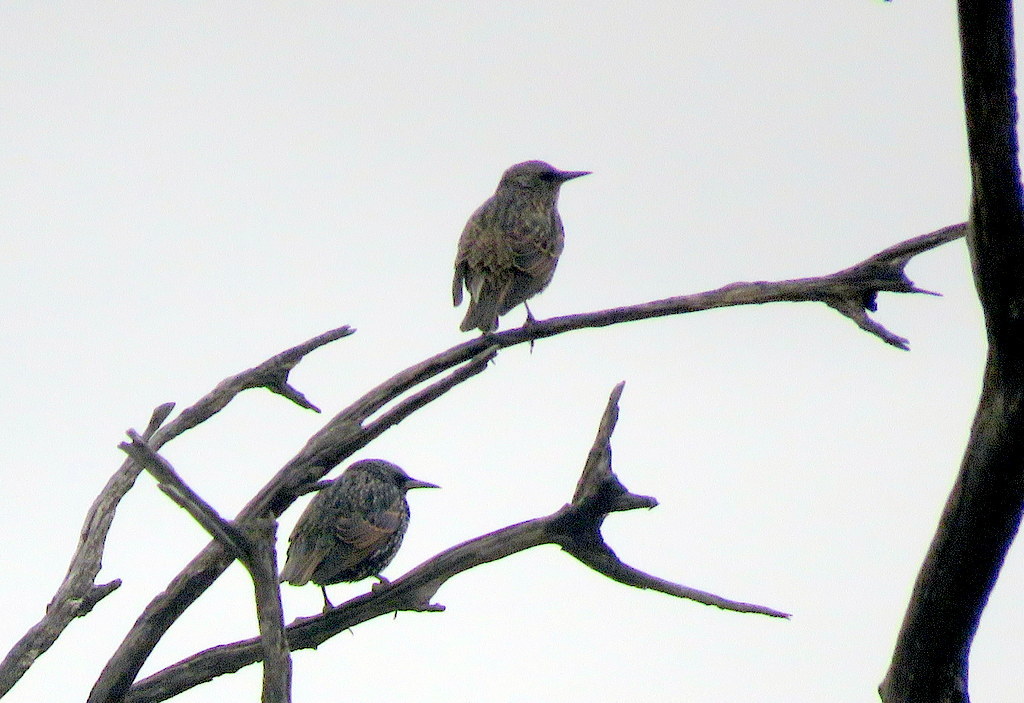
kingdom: Animalia
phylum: Chordata
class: Aves
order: Passeriformes
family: Sturnidae
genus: Sturnus
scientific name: Sturnus vulgaris
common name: Common starling
